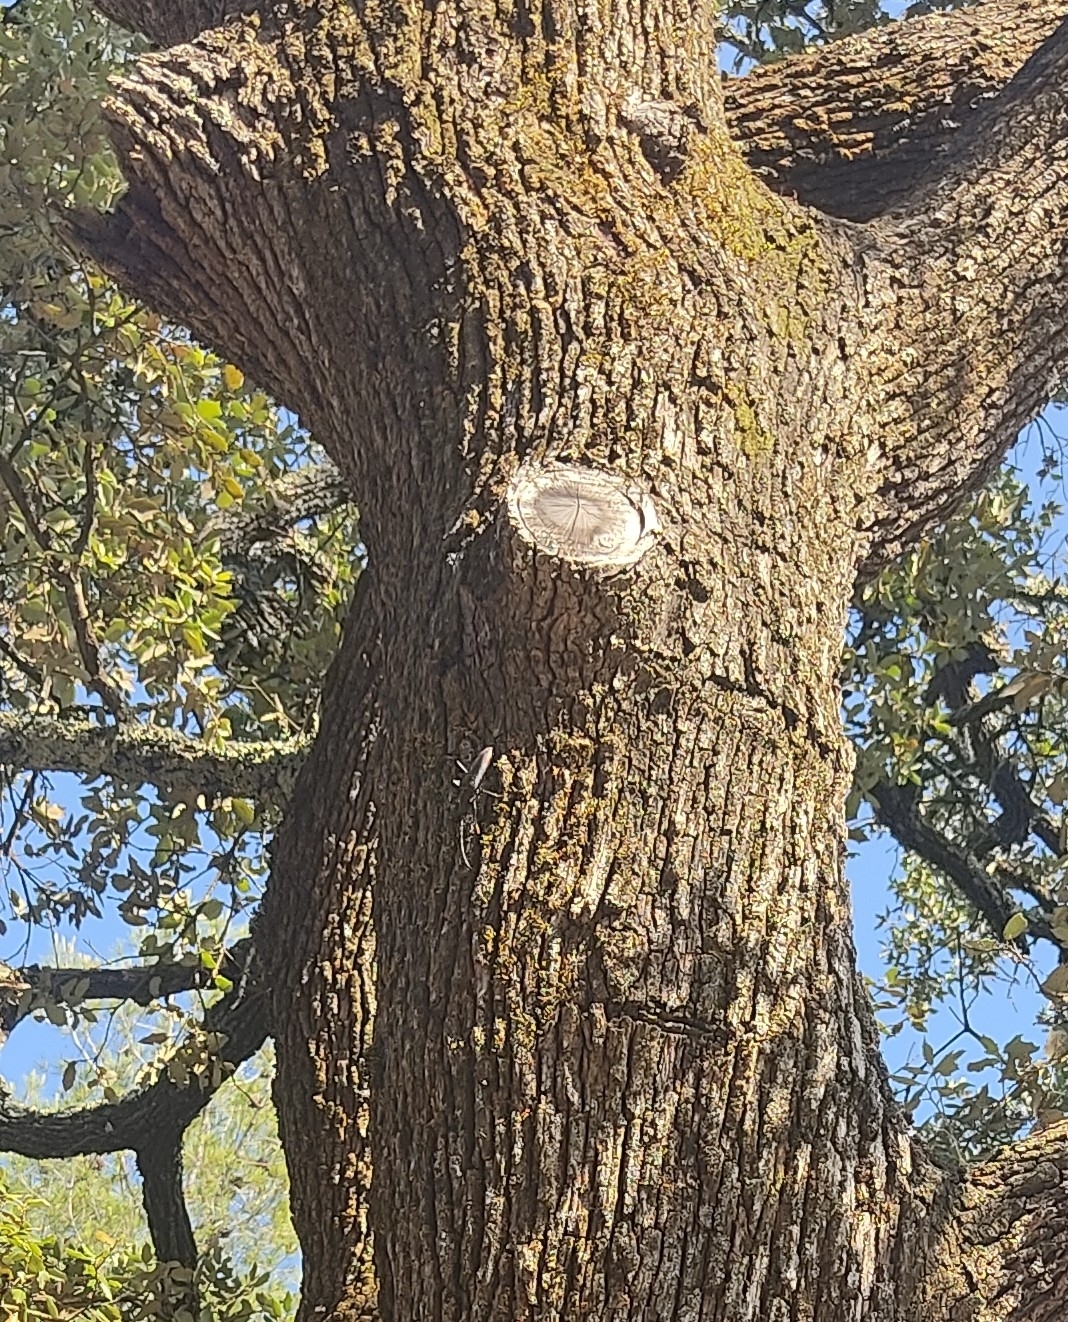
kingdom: Animalia
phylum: Arthropoda
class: Insecta
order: Coleoptera
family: Cerambycidae
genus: Cerambyx
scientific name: Cerambyx cerdo
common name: Cerambyx longicorn
